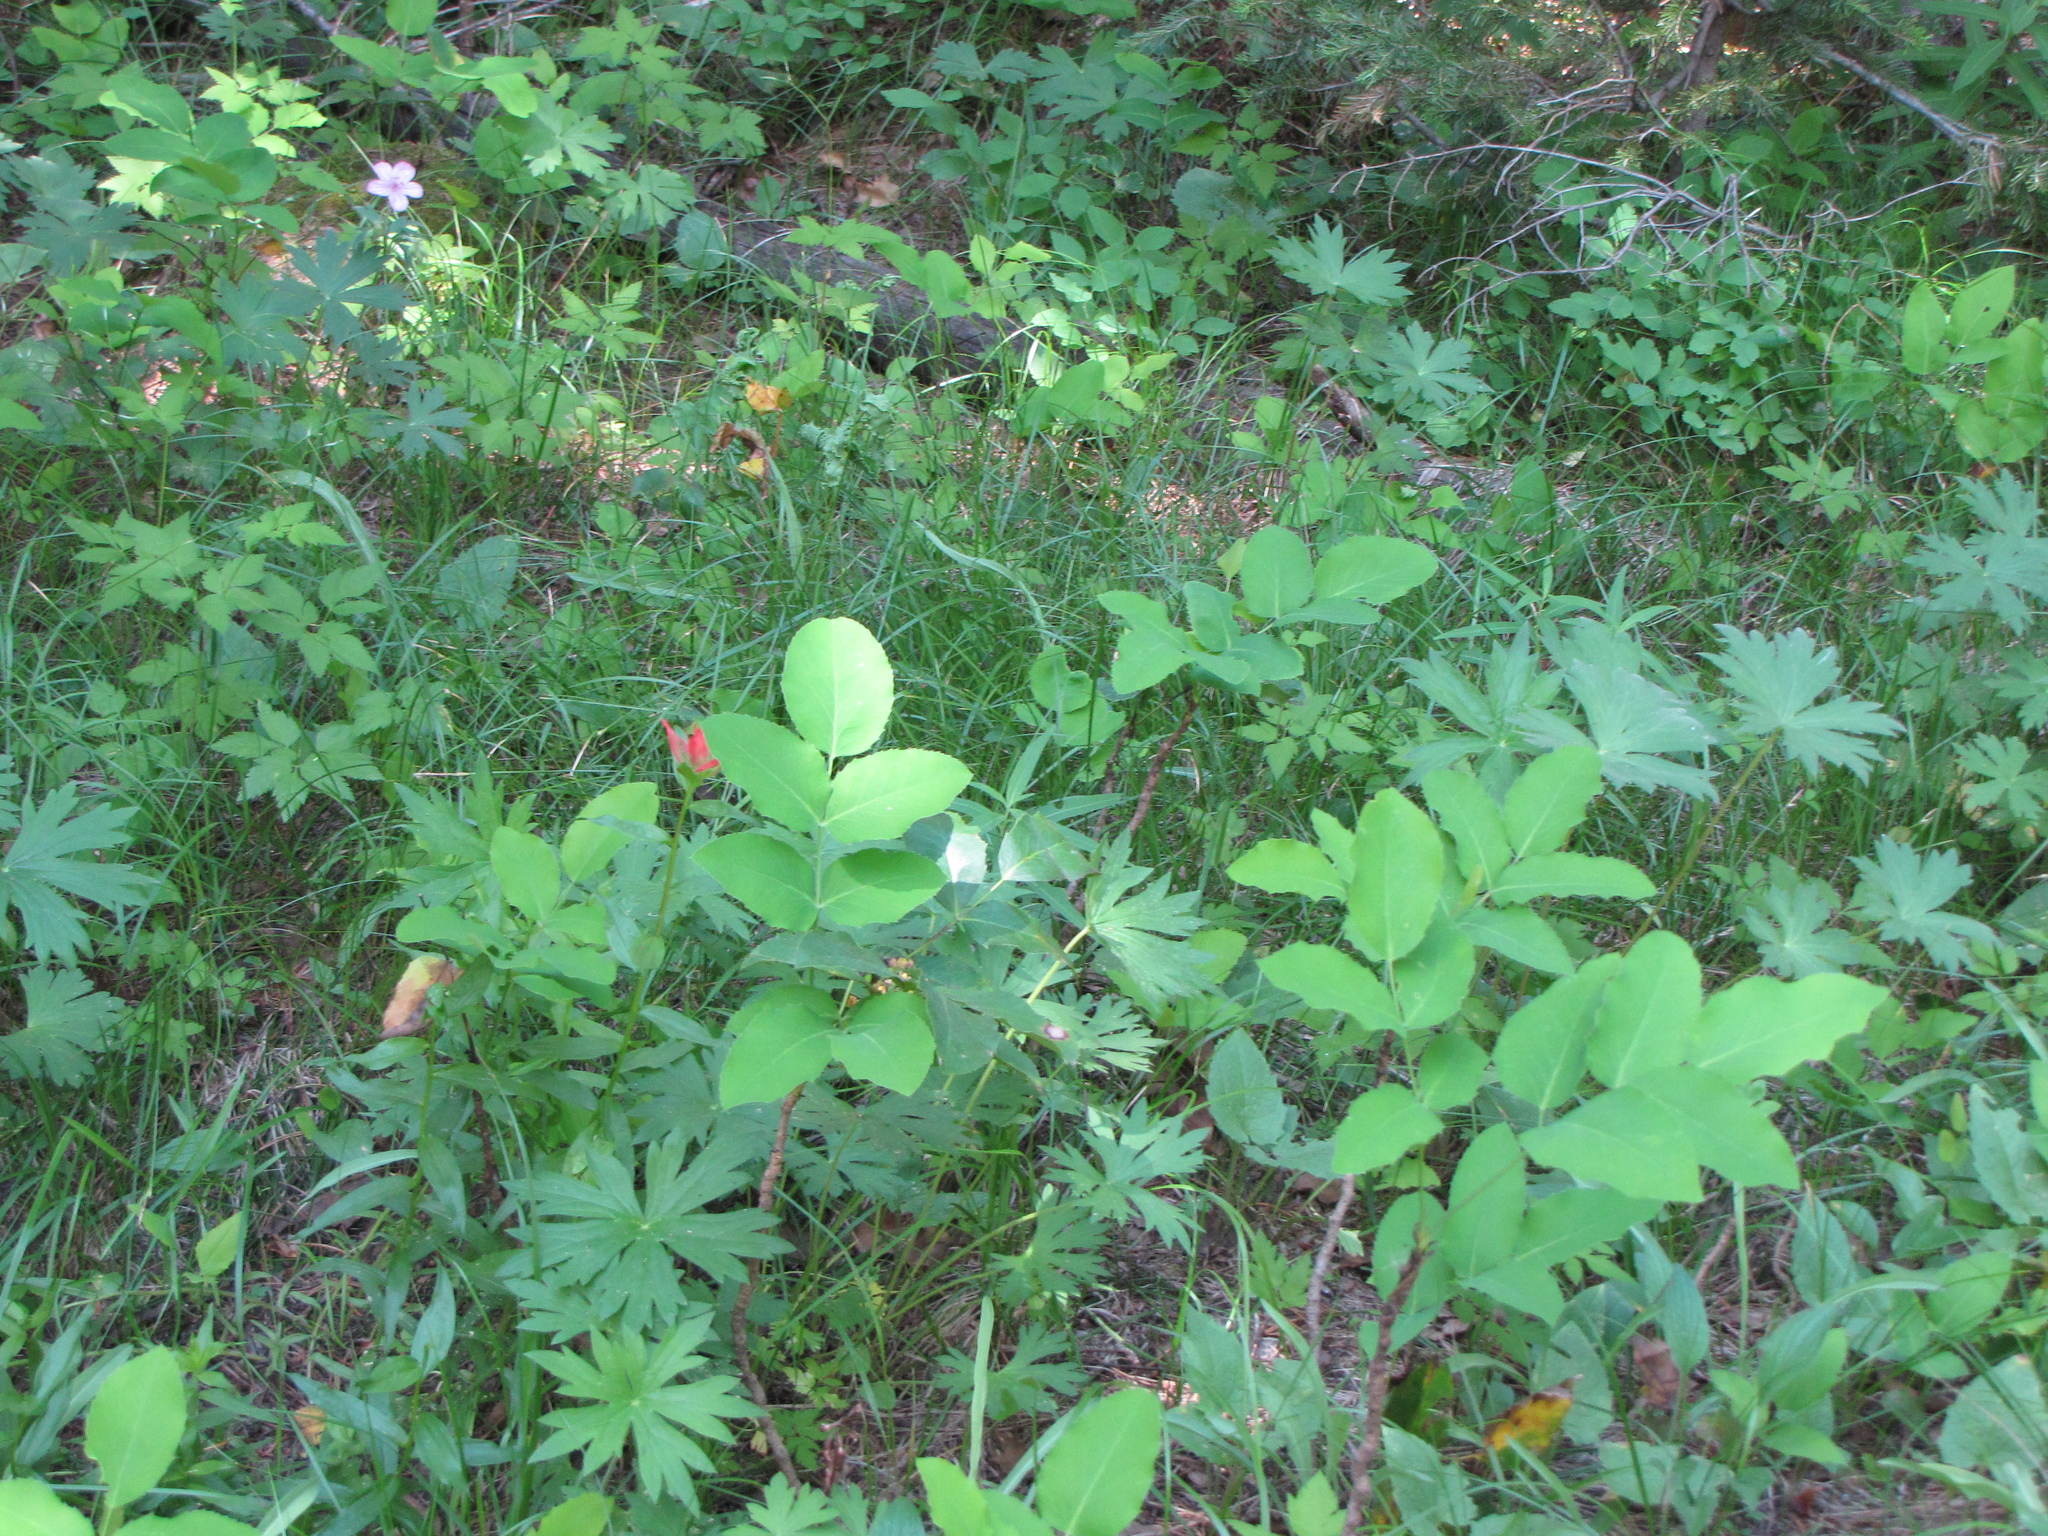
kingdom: Plantae
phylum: Tracheophyta
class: Magnoliopsida
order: Ranunculales
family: Berberidaceae
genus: Mahonia
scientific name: Mahonia repens
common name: Creeping oregon-grape
